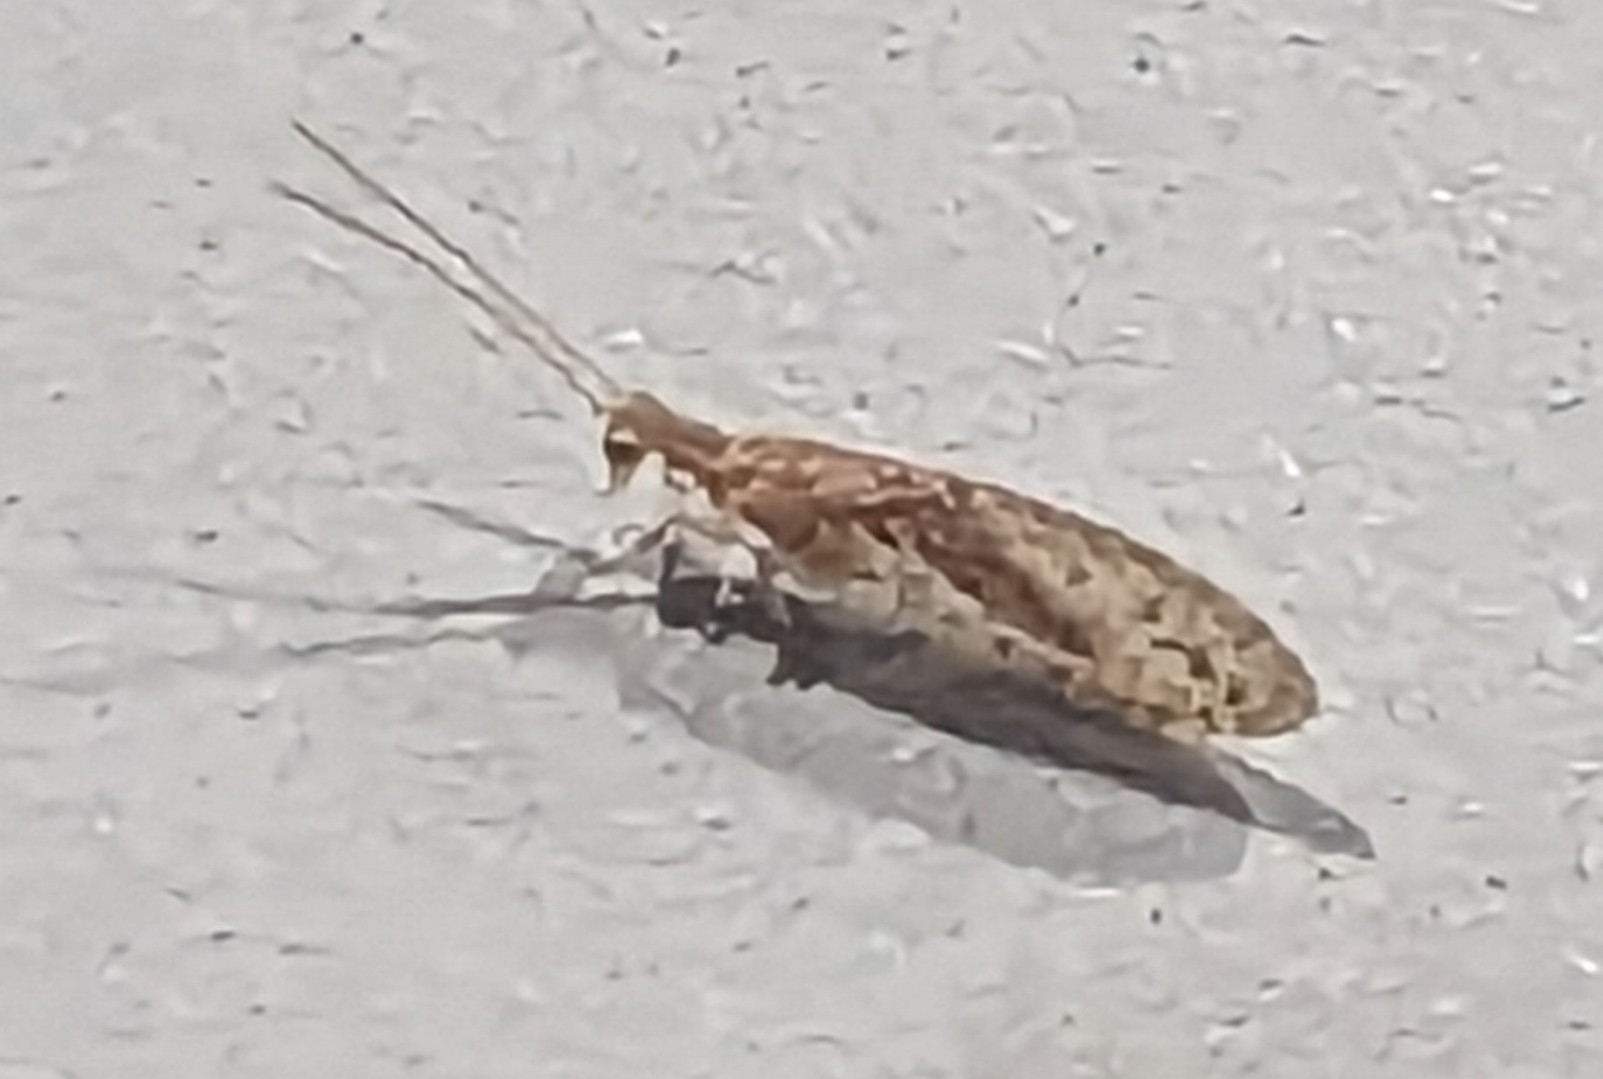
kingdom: Animalia
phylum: Arthropoda
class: Insecta
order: Neuroptera
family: Hemerobiidae
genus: Micromus
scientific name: Micromus tasmaniae
